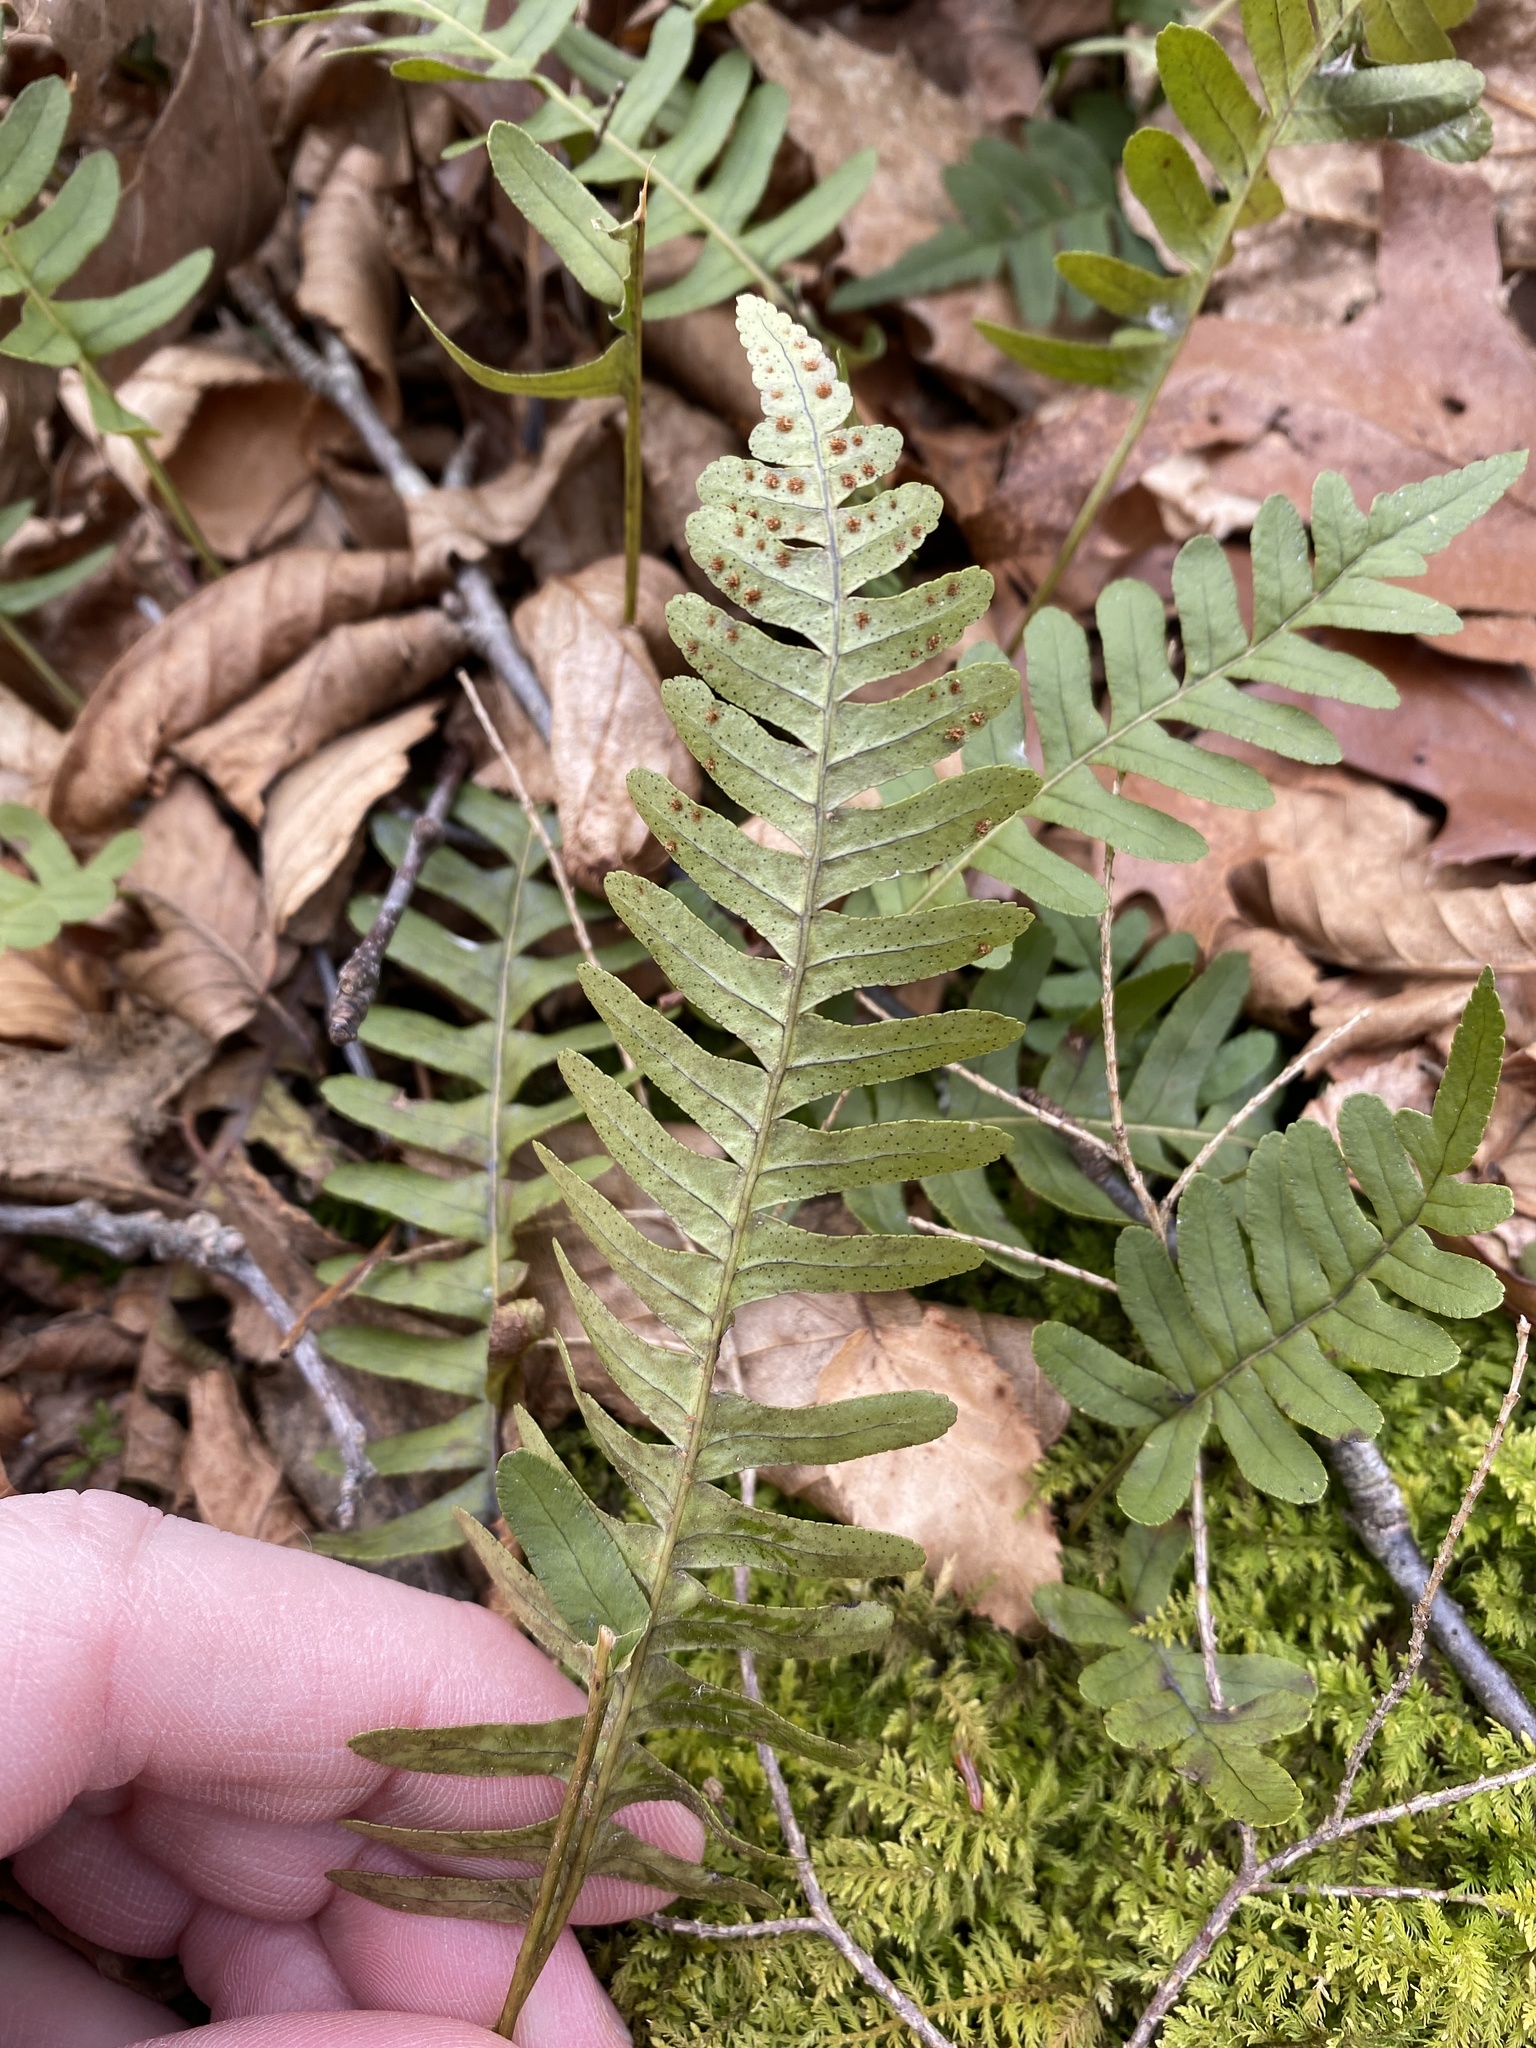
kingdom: Plantae
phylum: Tracheophyta
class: Polypodiopsida
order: Polypodiales
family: Polypodiaceae
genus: Polypodium
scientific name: Polypodium virginianum
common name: American wall fern
